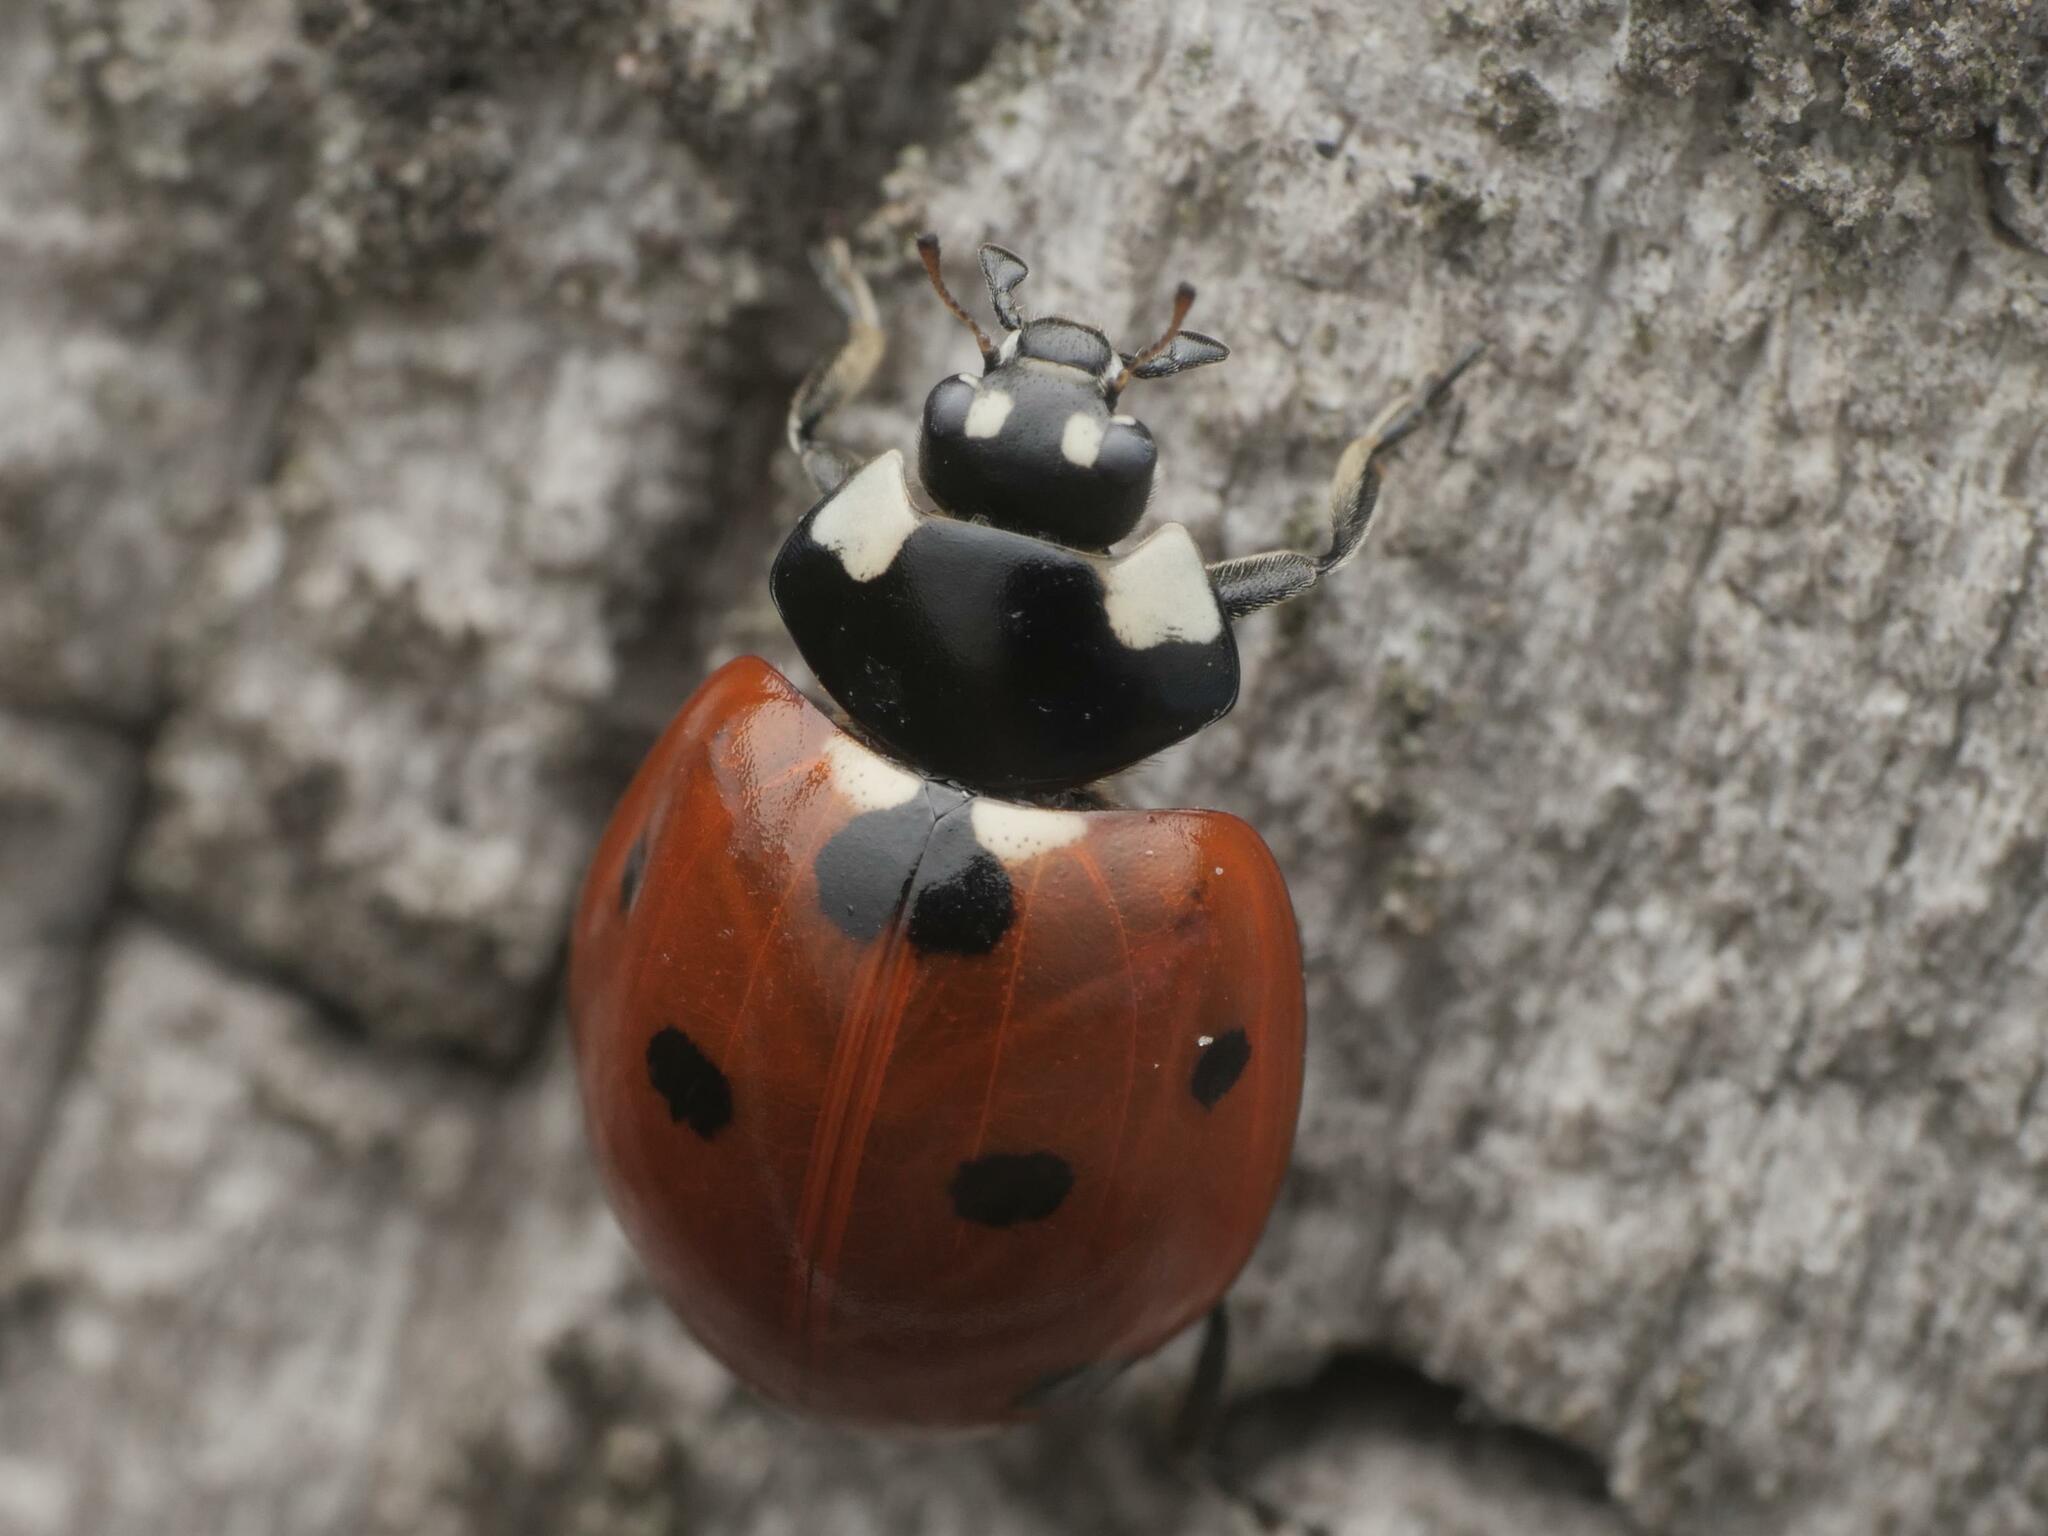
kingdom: Animalia
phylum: Arthropoda
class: Insecta
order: Coleoptera
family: Coccinellidae
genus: Coccinella
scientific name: Coccinella septempunctata
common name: Sevenspotted lady beetle
